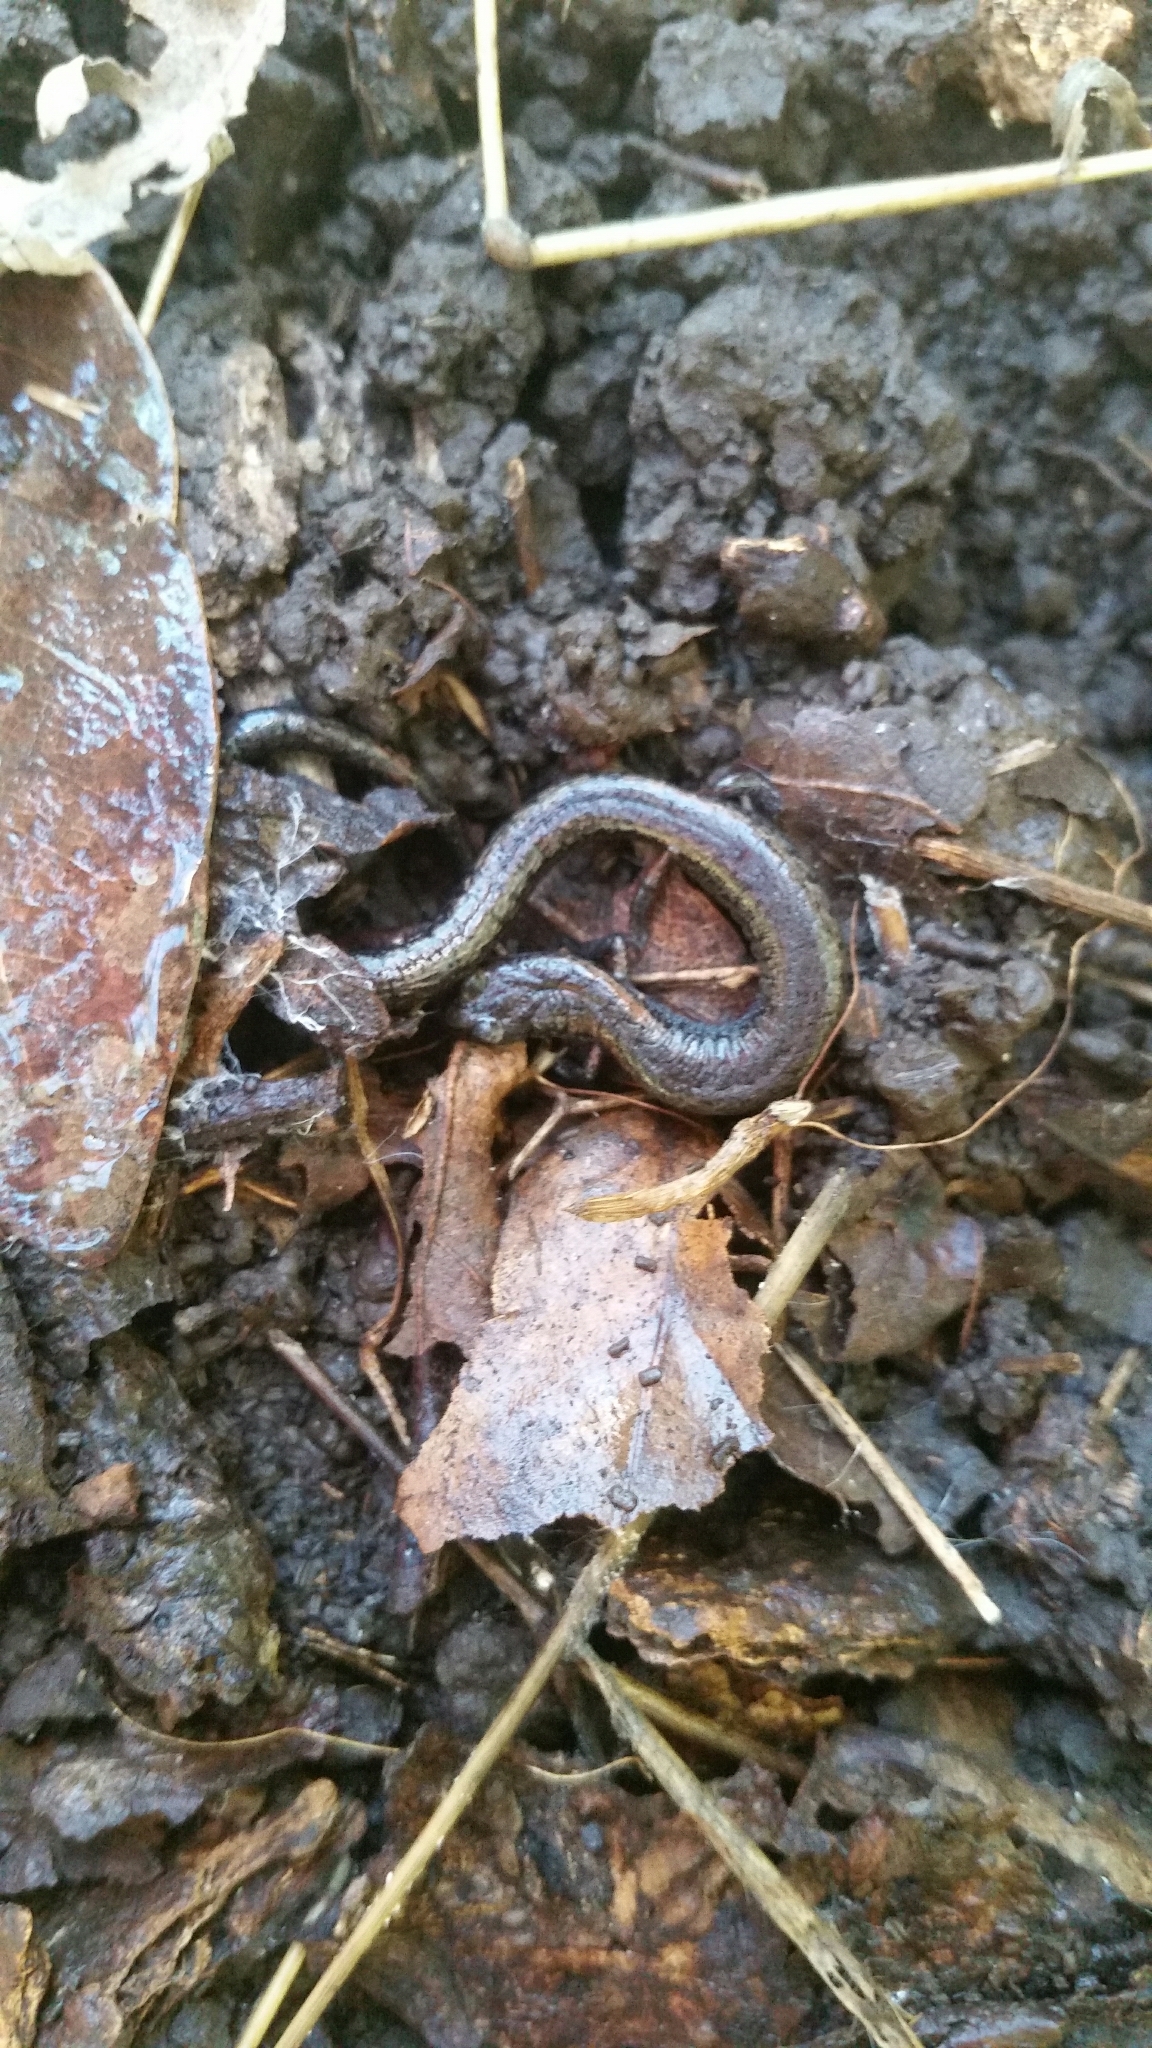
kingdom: Animalia
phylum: Chordata
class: Amphibia
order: Caudata
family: Plethodontidae
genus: Batrachoseps
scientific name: Batrachoseps attenuatus
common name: California slender salamander
